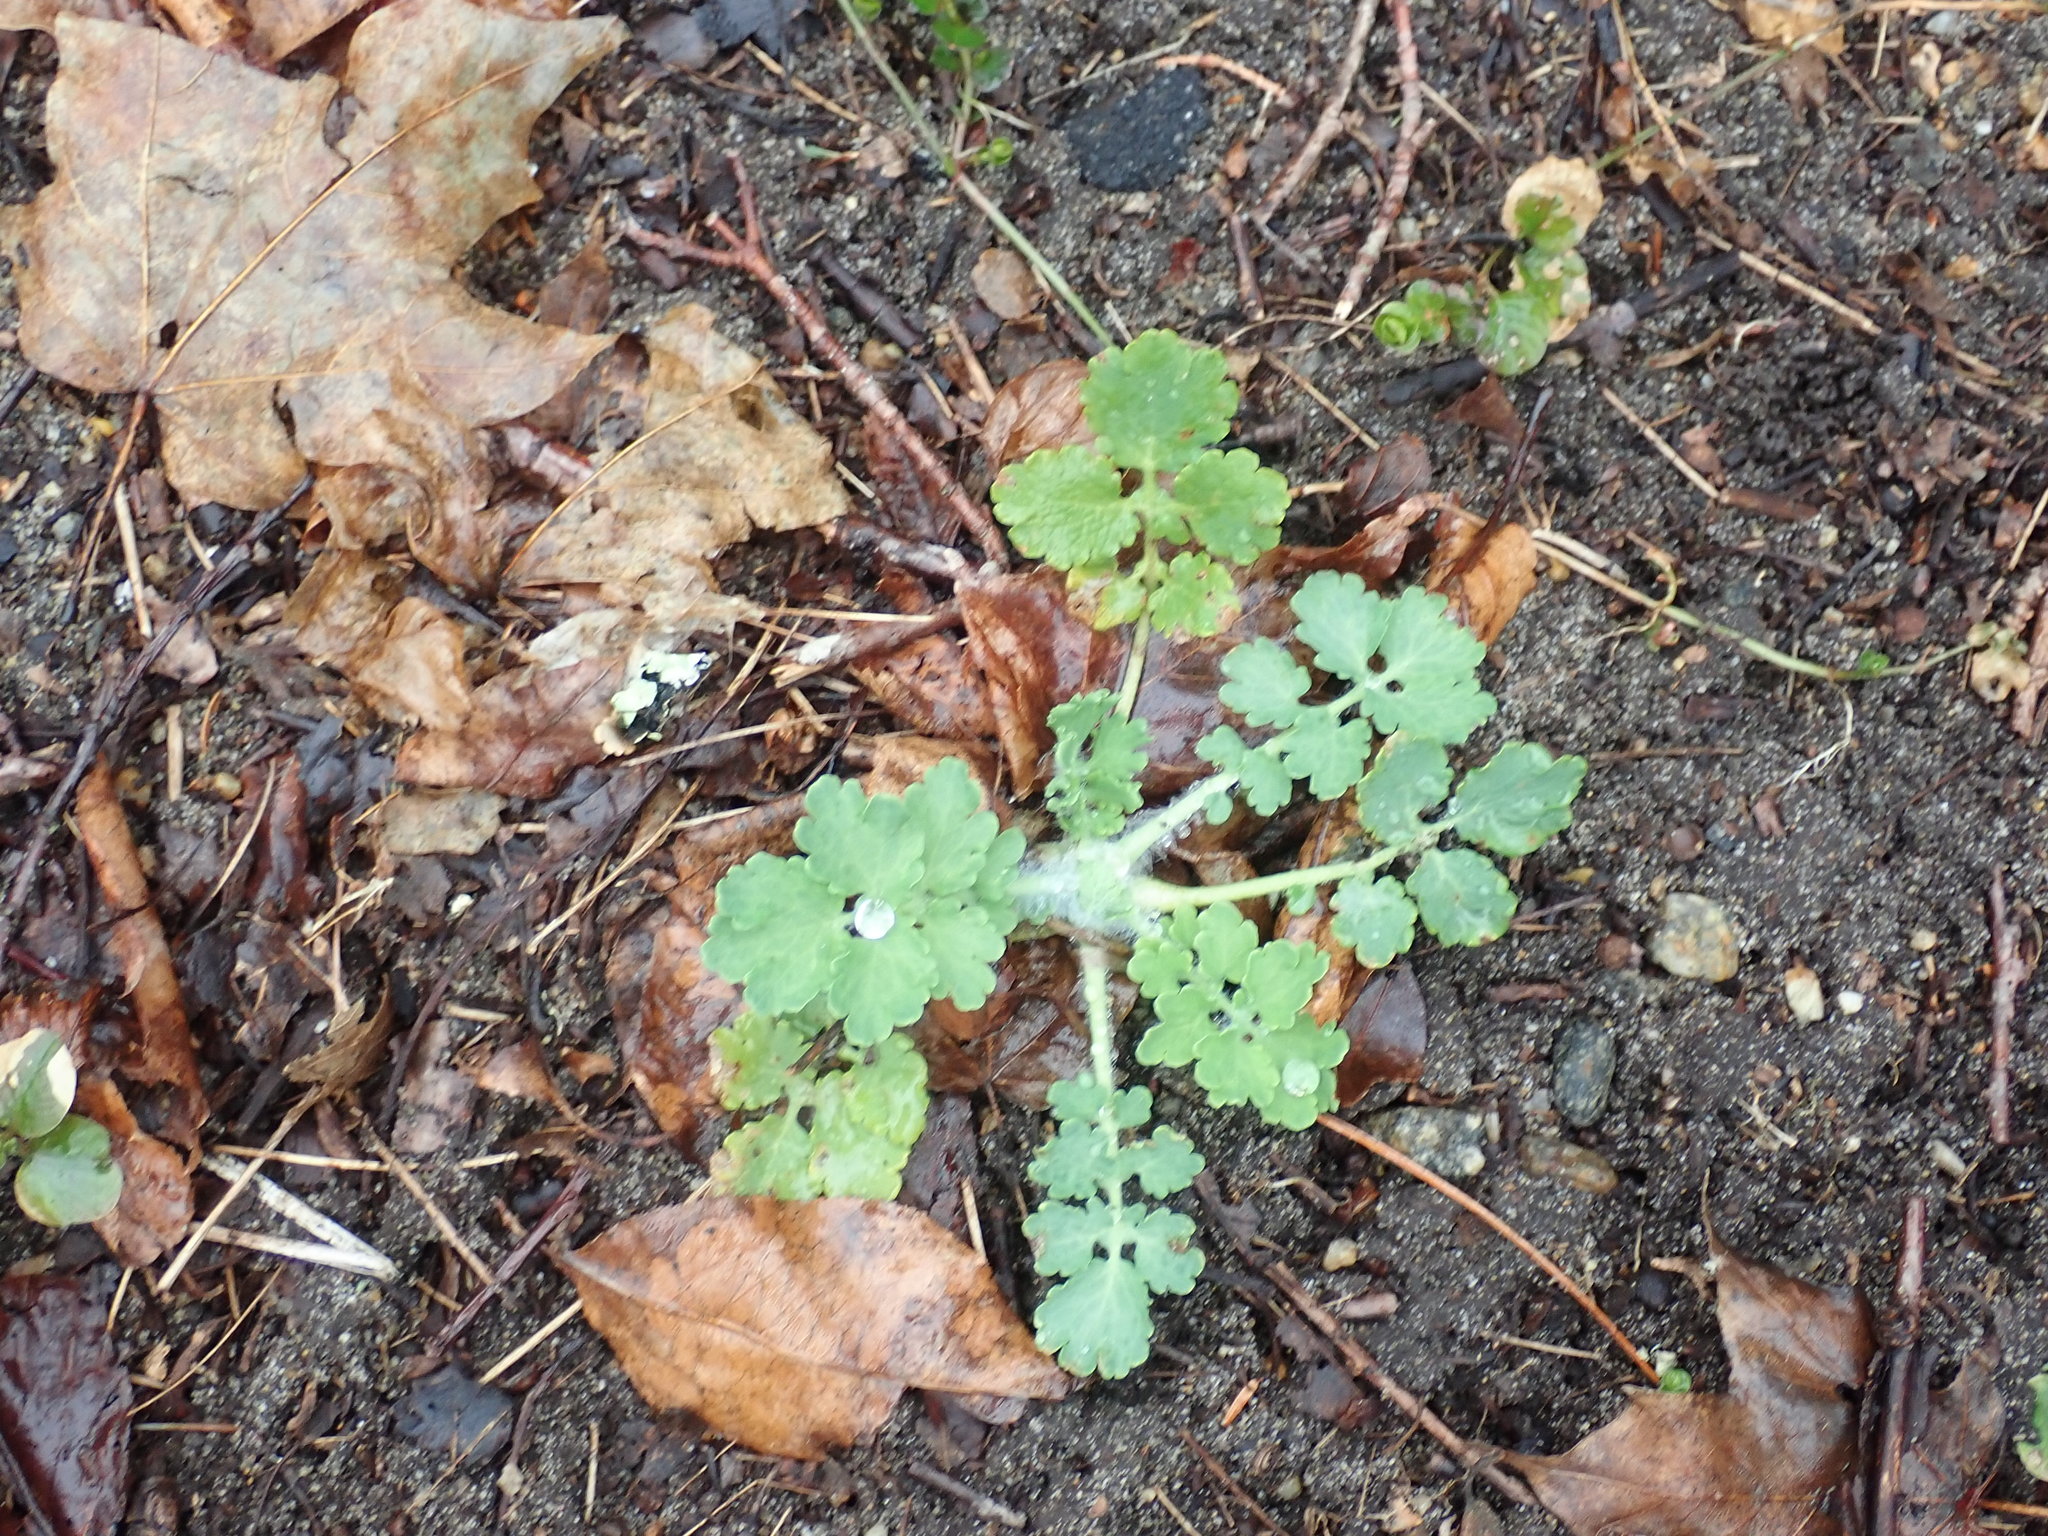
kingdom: Plantae
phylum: Tracheophyta
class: Magnoliopsida
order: Ranunculales
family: Papaveraceae
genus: Chelidonium
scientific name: Chelidonium majus
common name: Greater celandine
